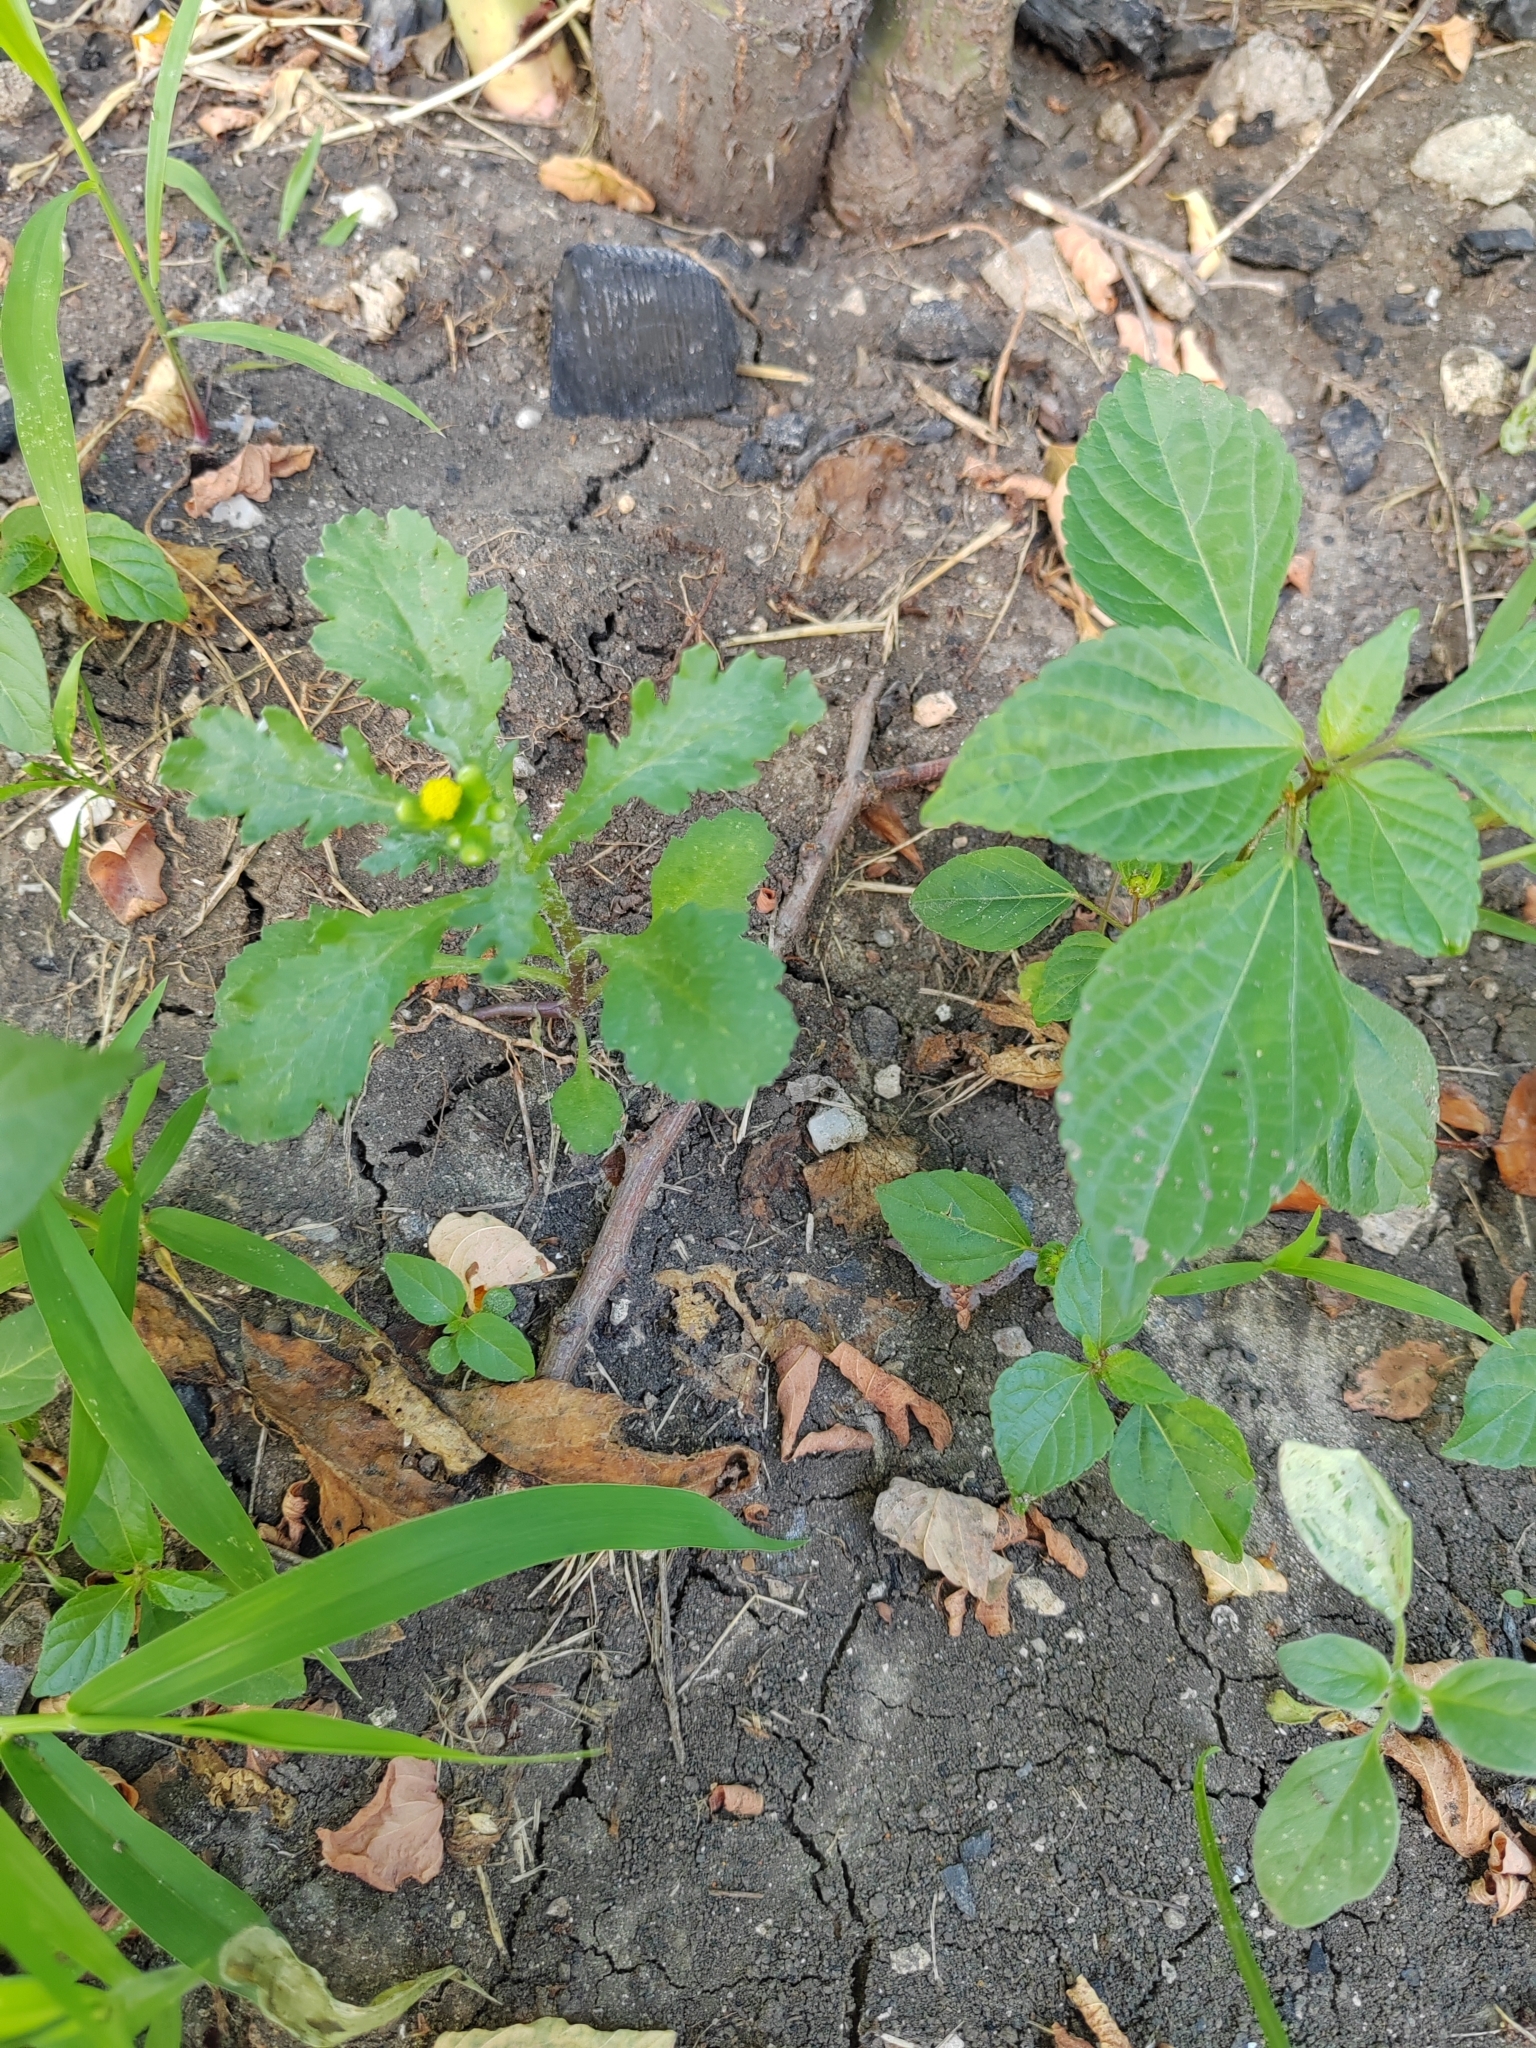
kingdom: Plantae
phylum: Tracheophyta
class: Magnoliopsida
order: Asterales
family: Asteraceae
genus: Senecio
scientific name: Senecio vulgaris
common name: Old-man-in-the-spring
